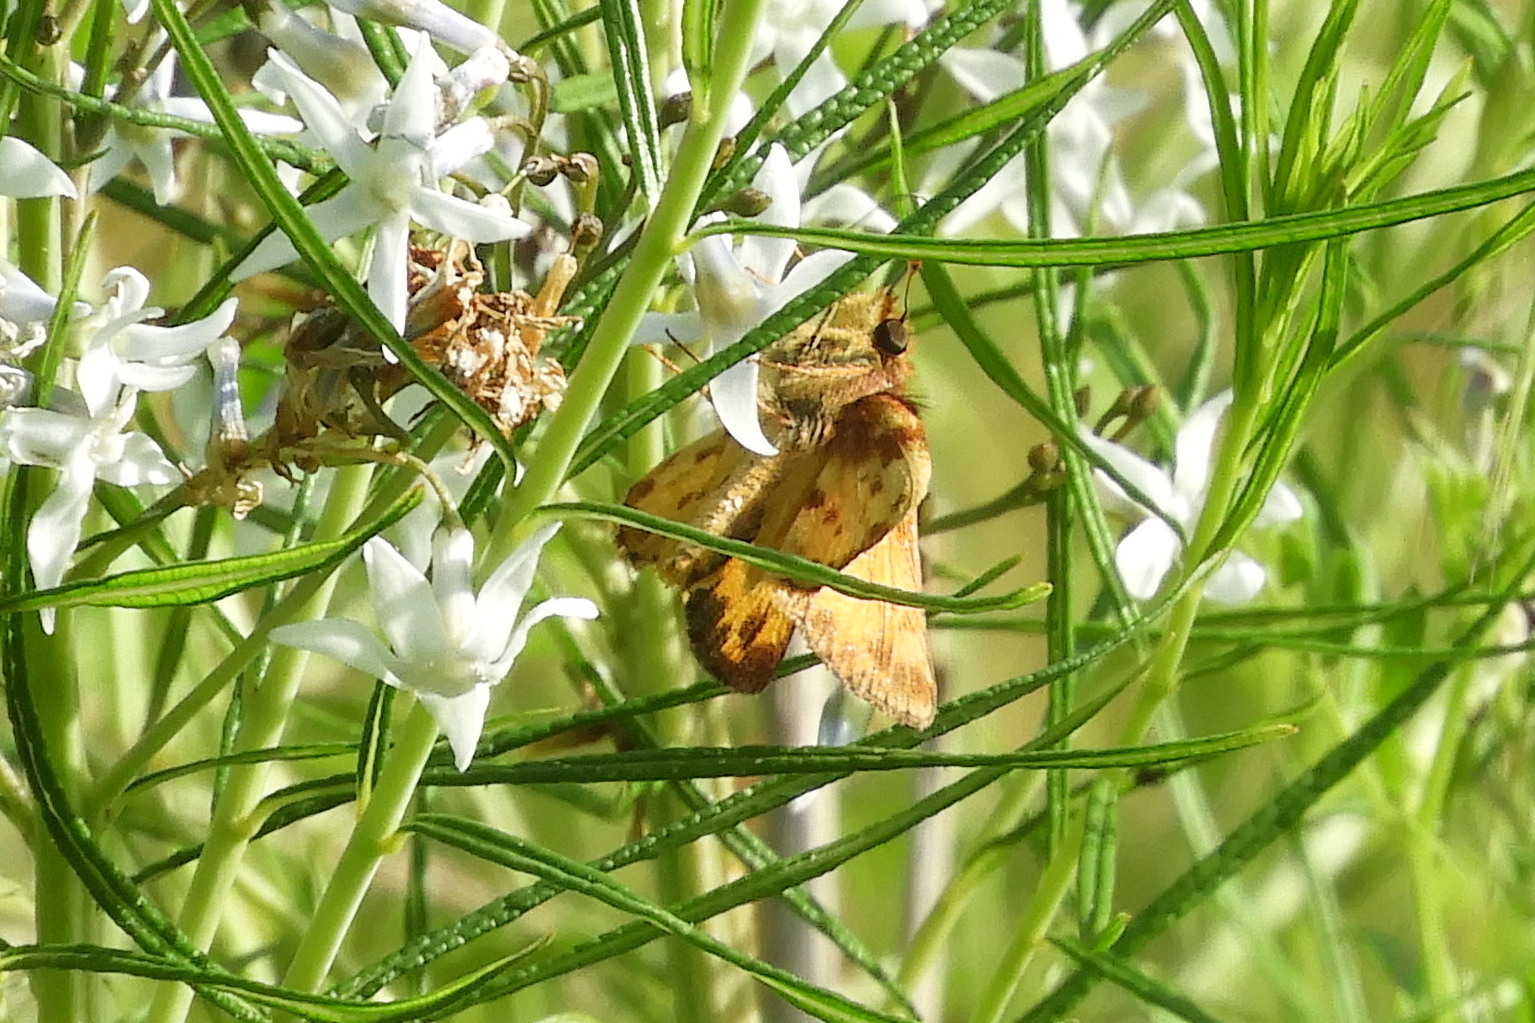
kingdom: Animalia
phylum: Arthropoda
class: Insecta
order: Lepidoptera
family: Hesperiidae
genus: Lon
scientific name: Lon zabulon
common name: Zabulon skipper
